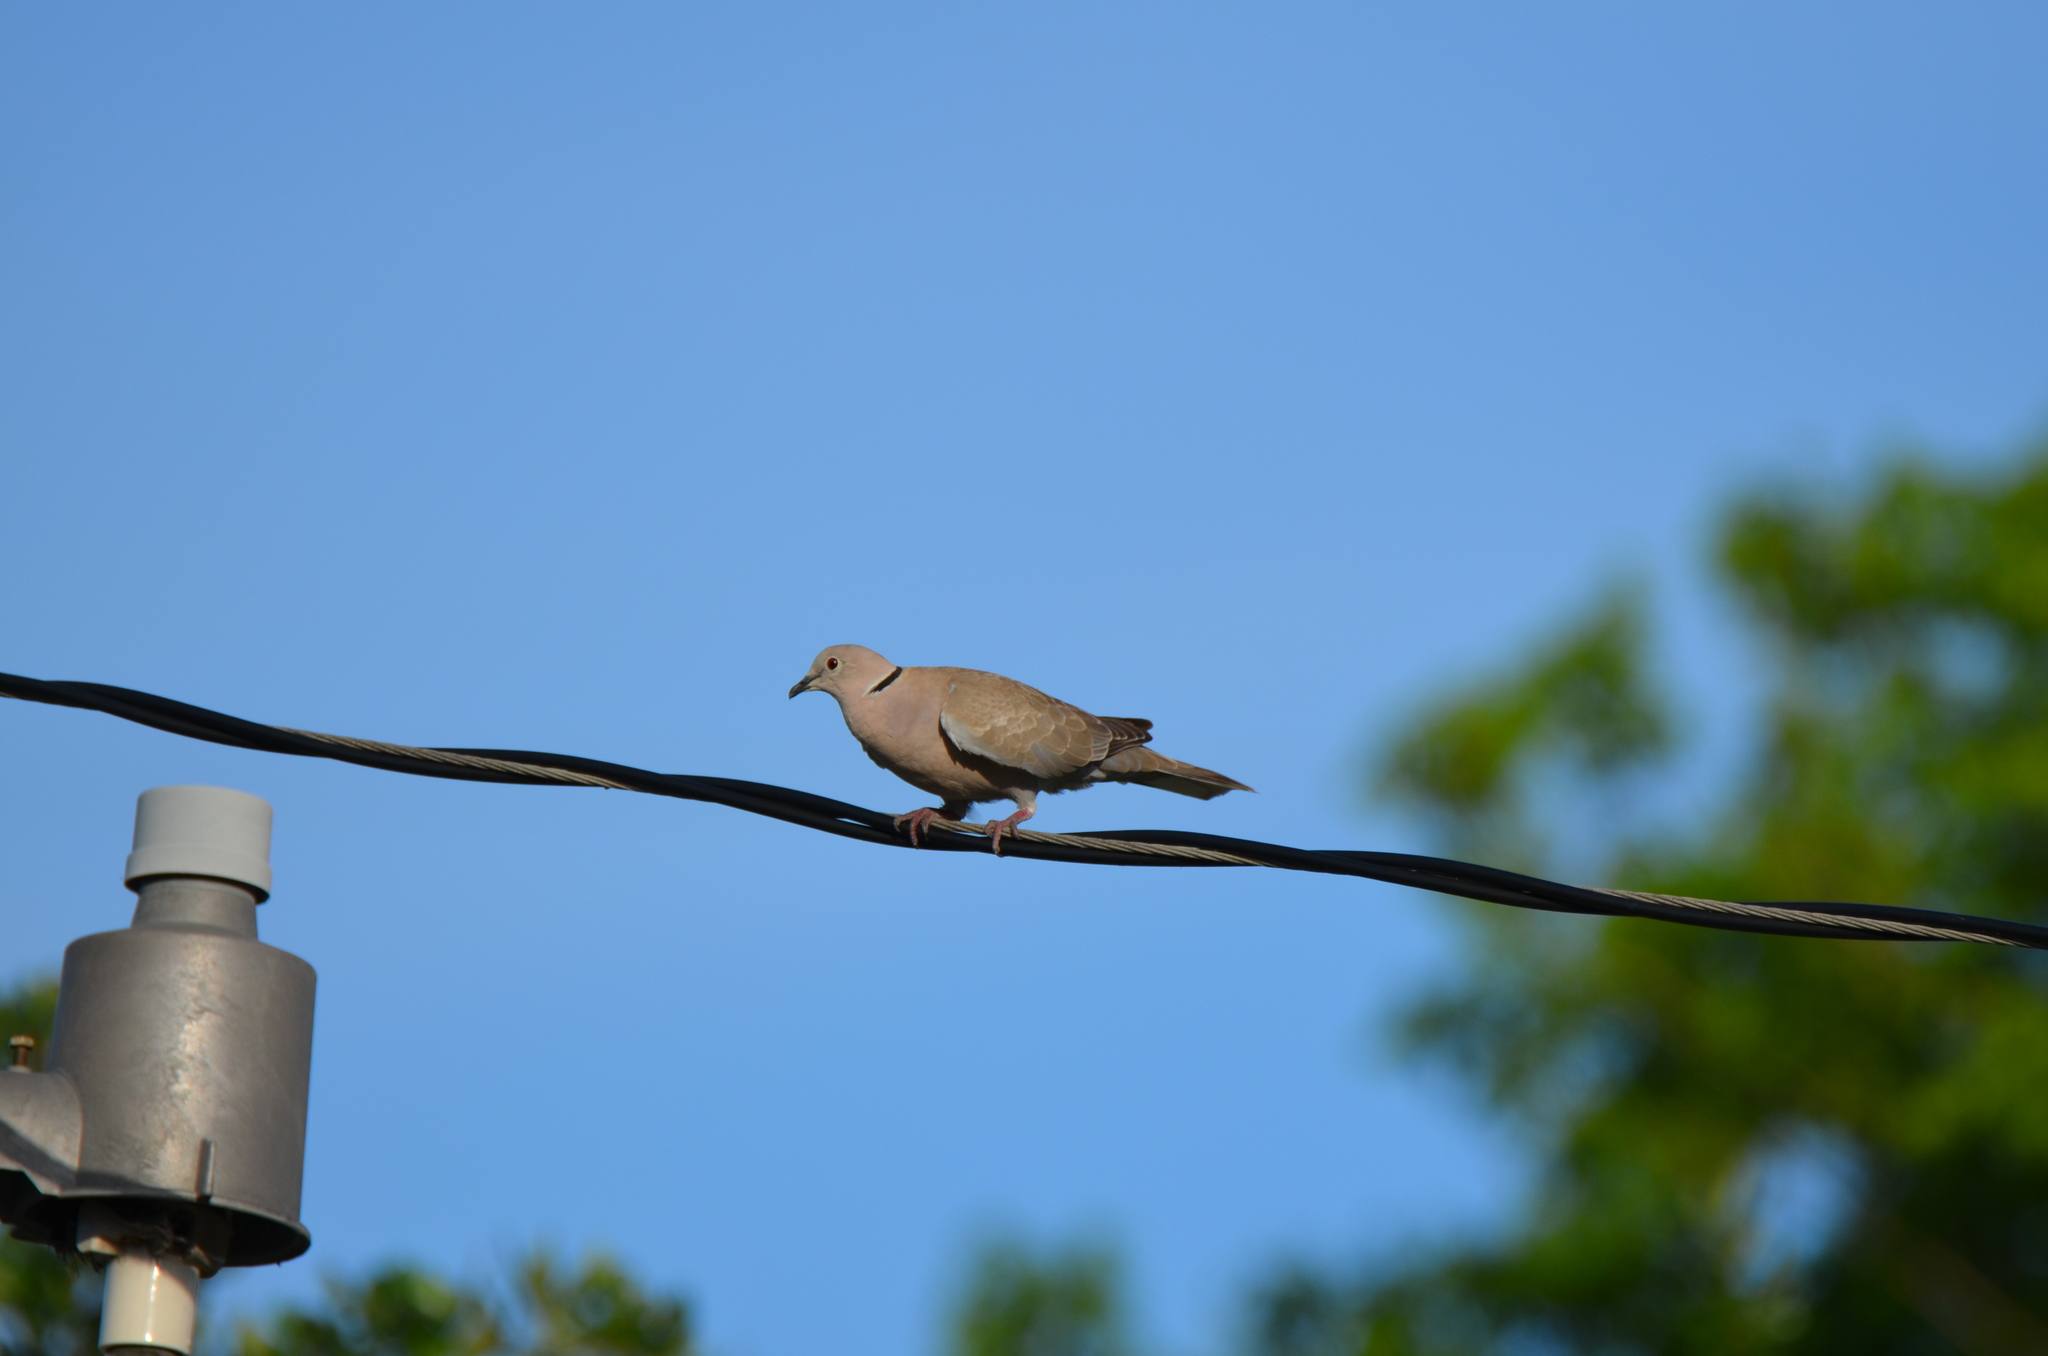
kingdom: Animalia
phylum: Chordata
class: Aves
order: Columbiformes
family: Columbidae
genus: Streptopelia
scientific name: Streptopelia decaocto
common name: Eurasian collared dove
